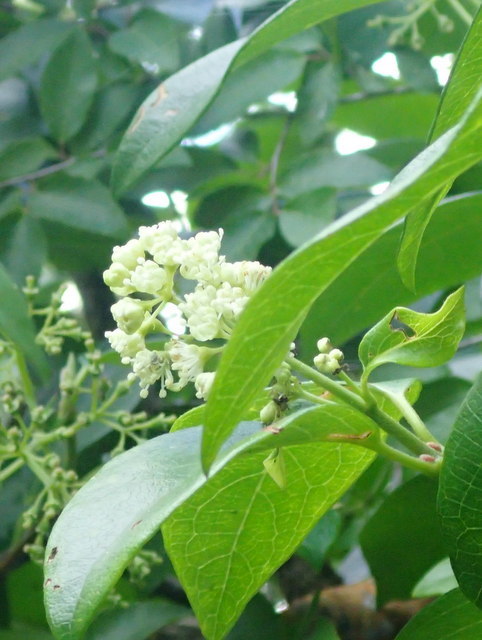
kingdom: Plantae
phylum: Tracheophyta
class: Magnoliopsida
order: Cornales
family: Hydrangeaceae
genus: Hydrangea
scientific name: Hydrangea barbara
